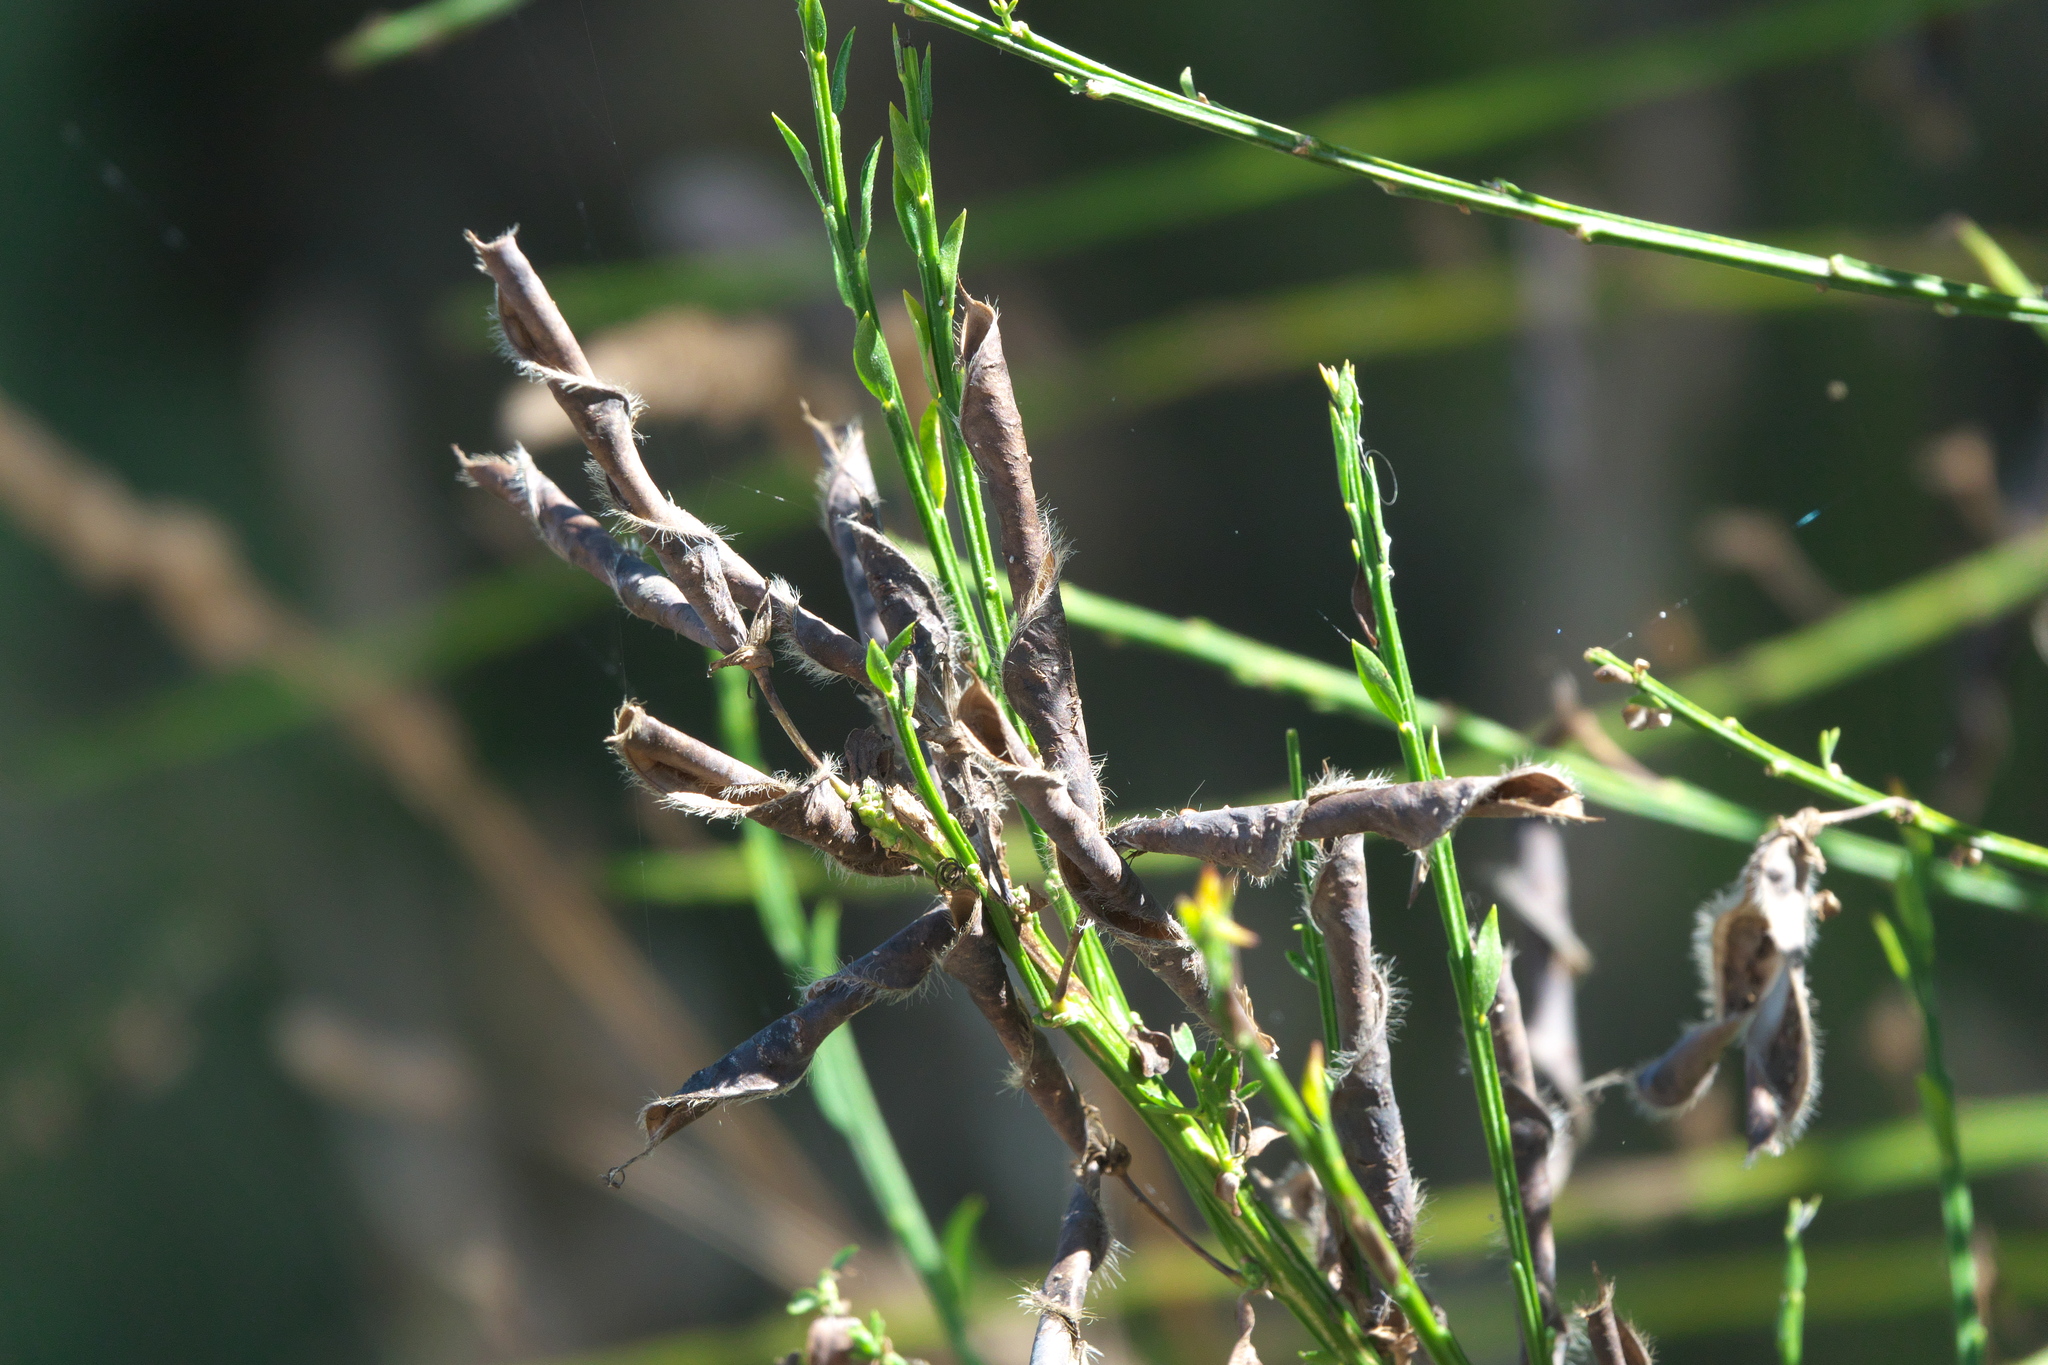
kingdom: Plantae
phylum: Tracheophyta
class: Magnoliopsida
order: Fabales
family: Fabaceae
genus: Cytisus
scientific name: Cytisus scoparius
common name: Scotch broom
